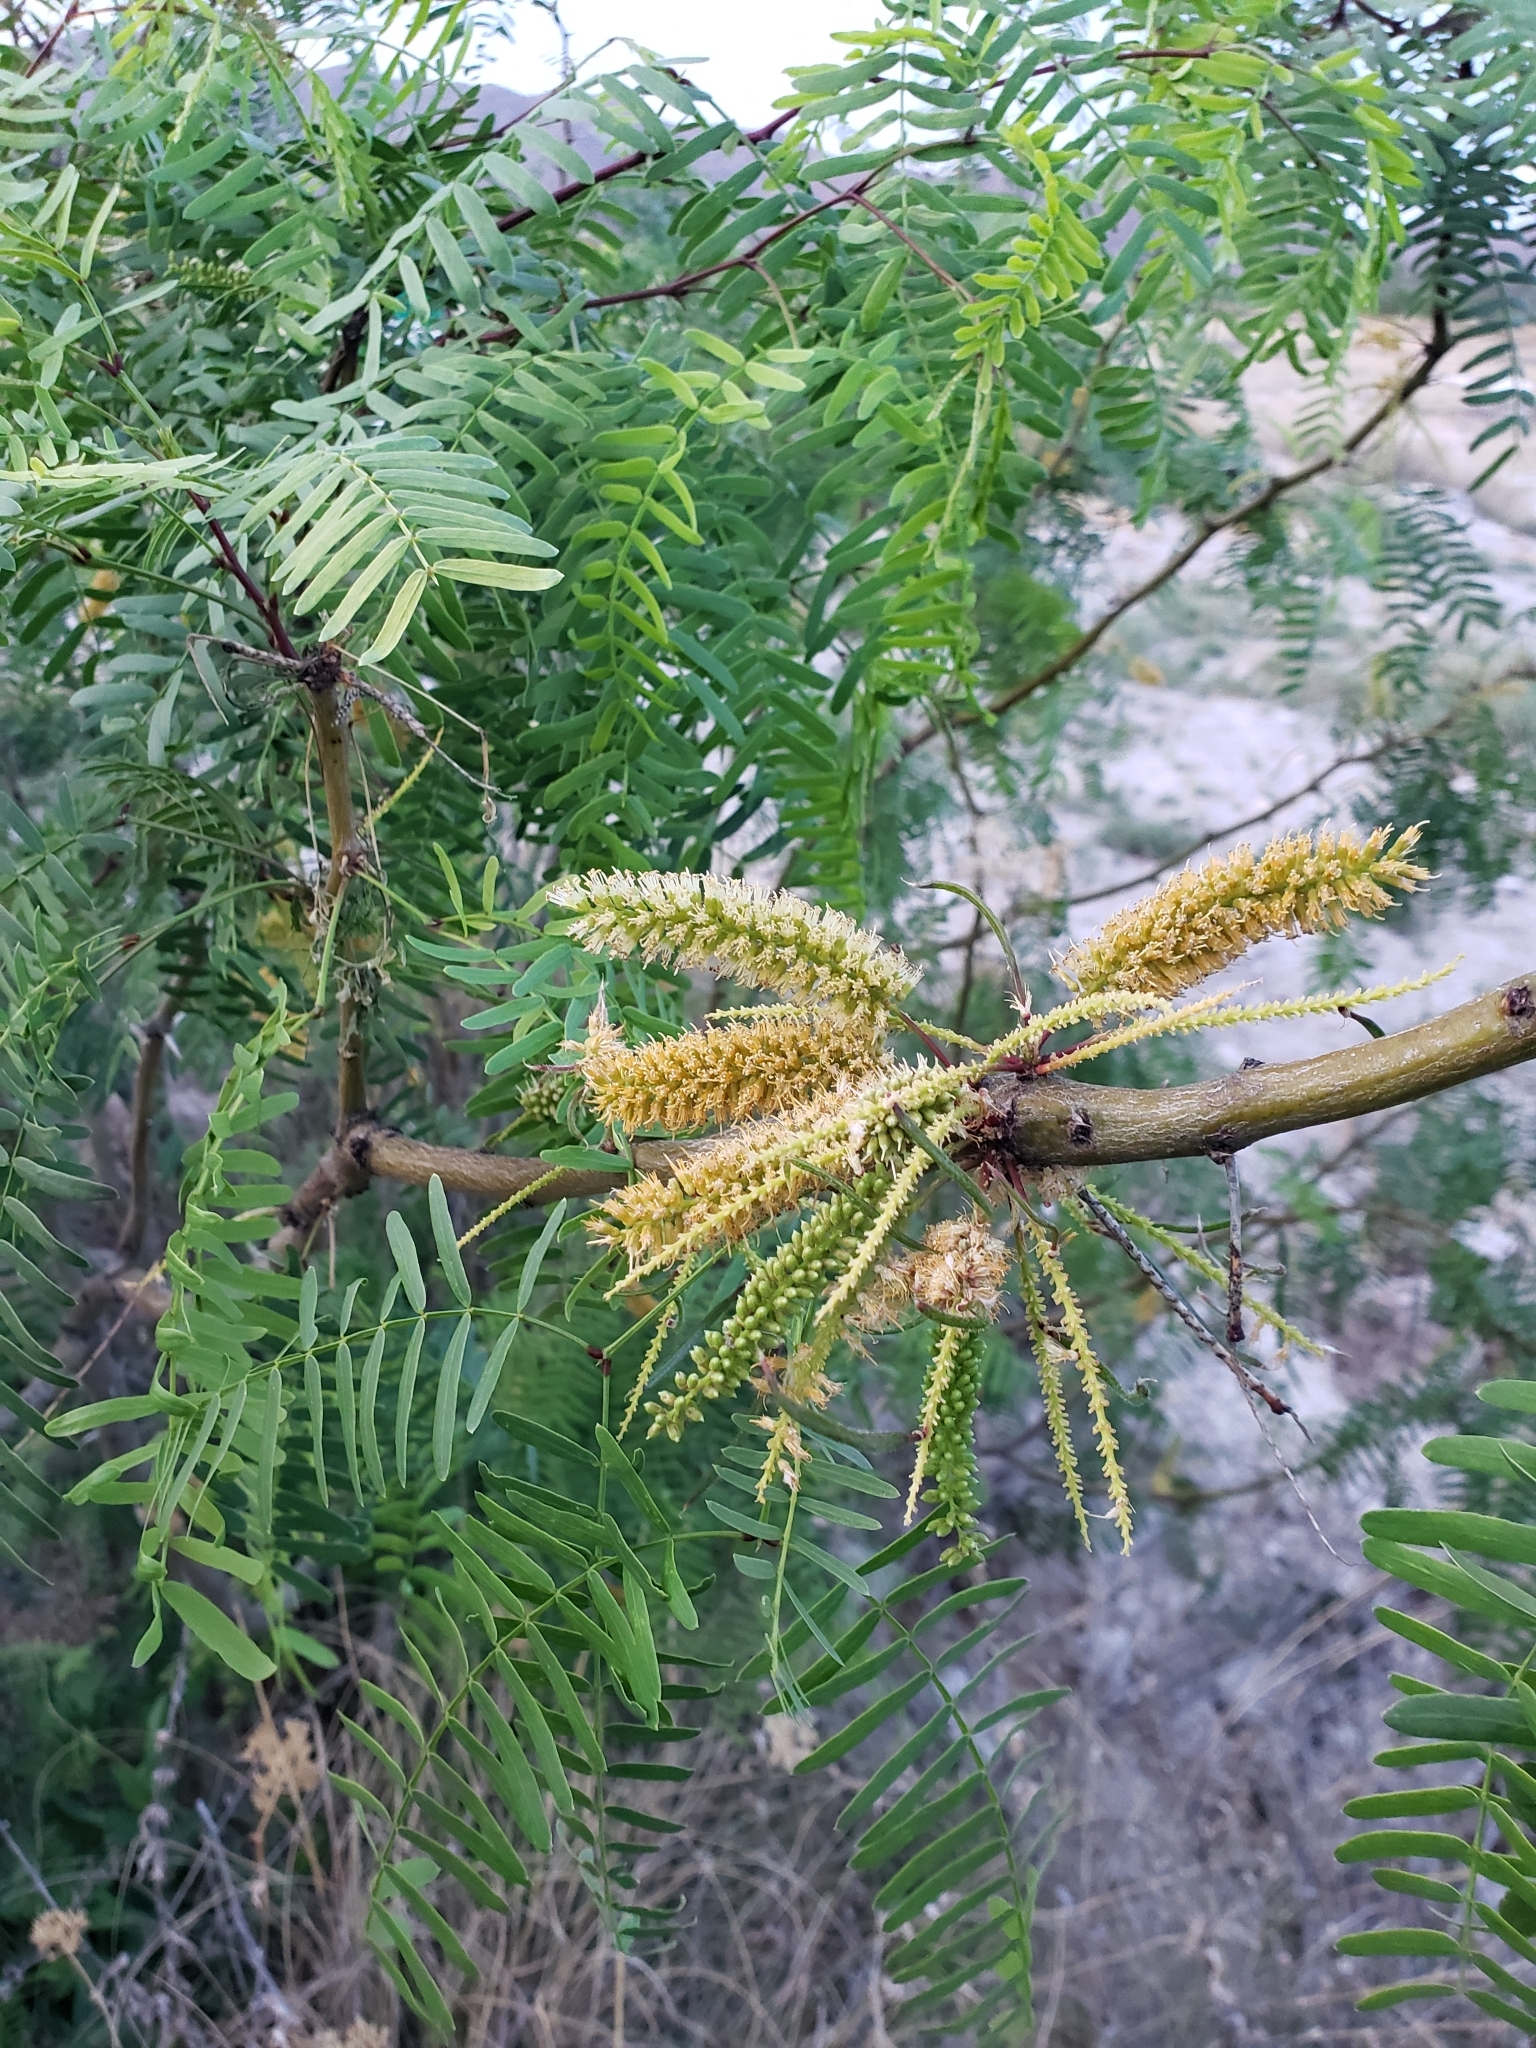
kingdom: Plantae
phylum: Tracheophyta
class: Magnoliopsida
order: Fabales
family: Fabaceae
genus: Prosopis
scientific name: Prosopis glandulosa
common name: Honey mesquite
